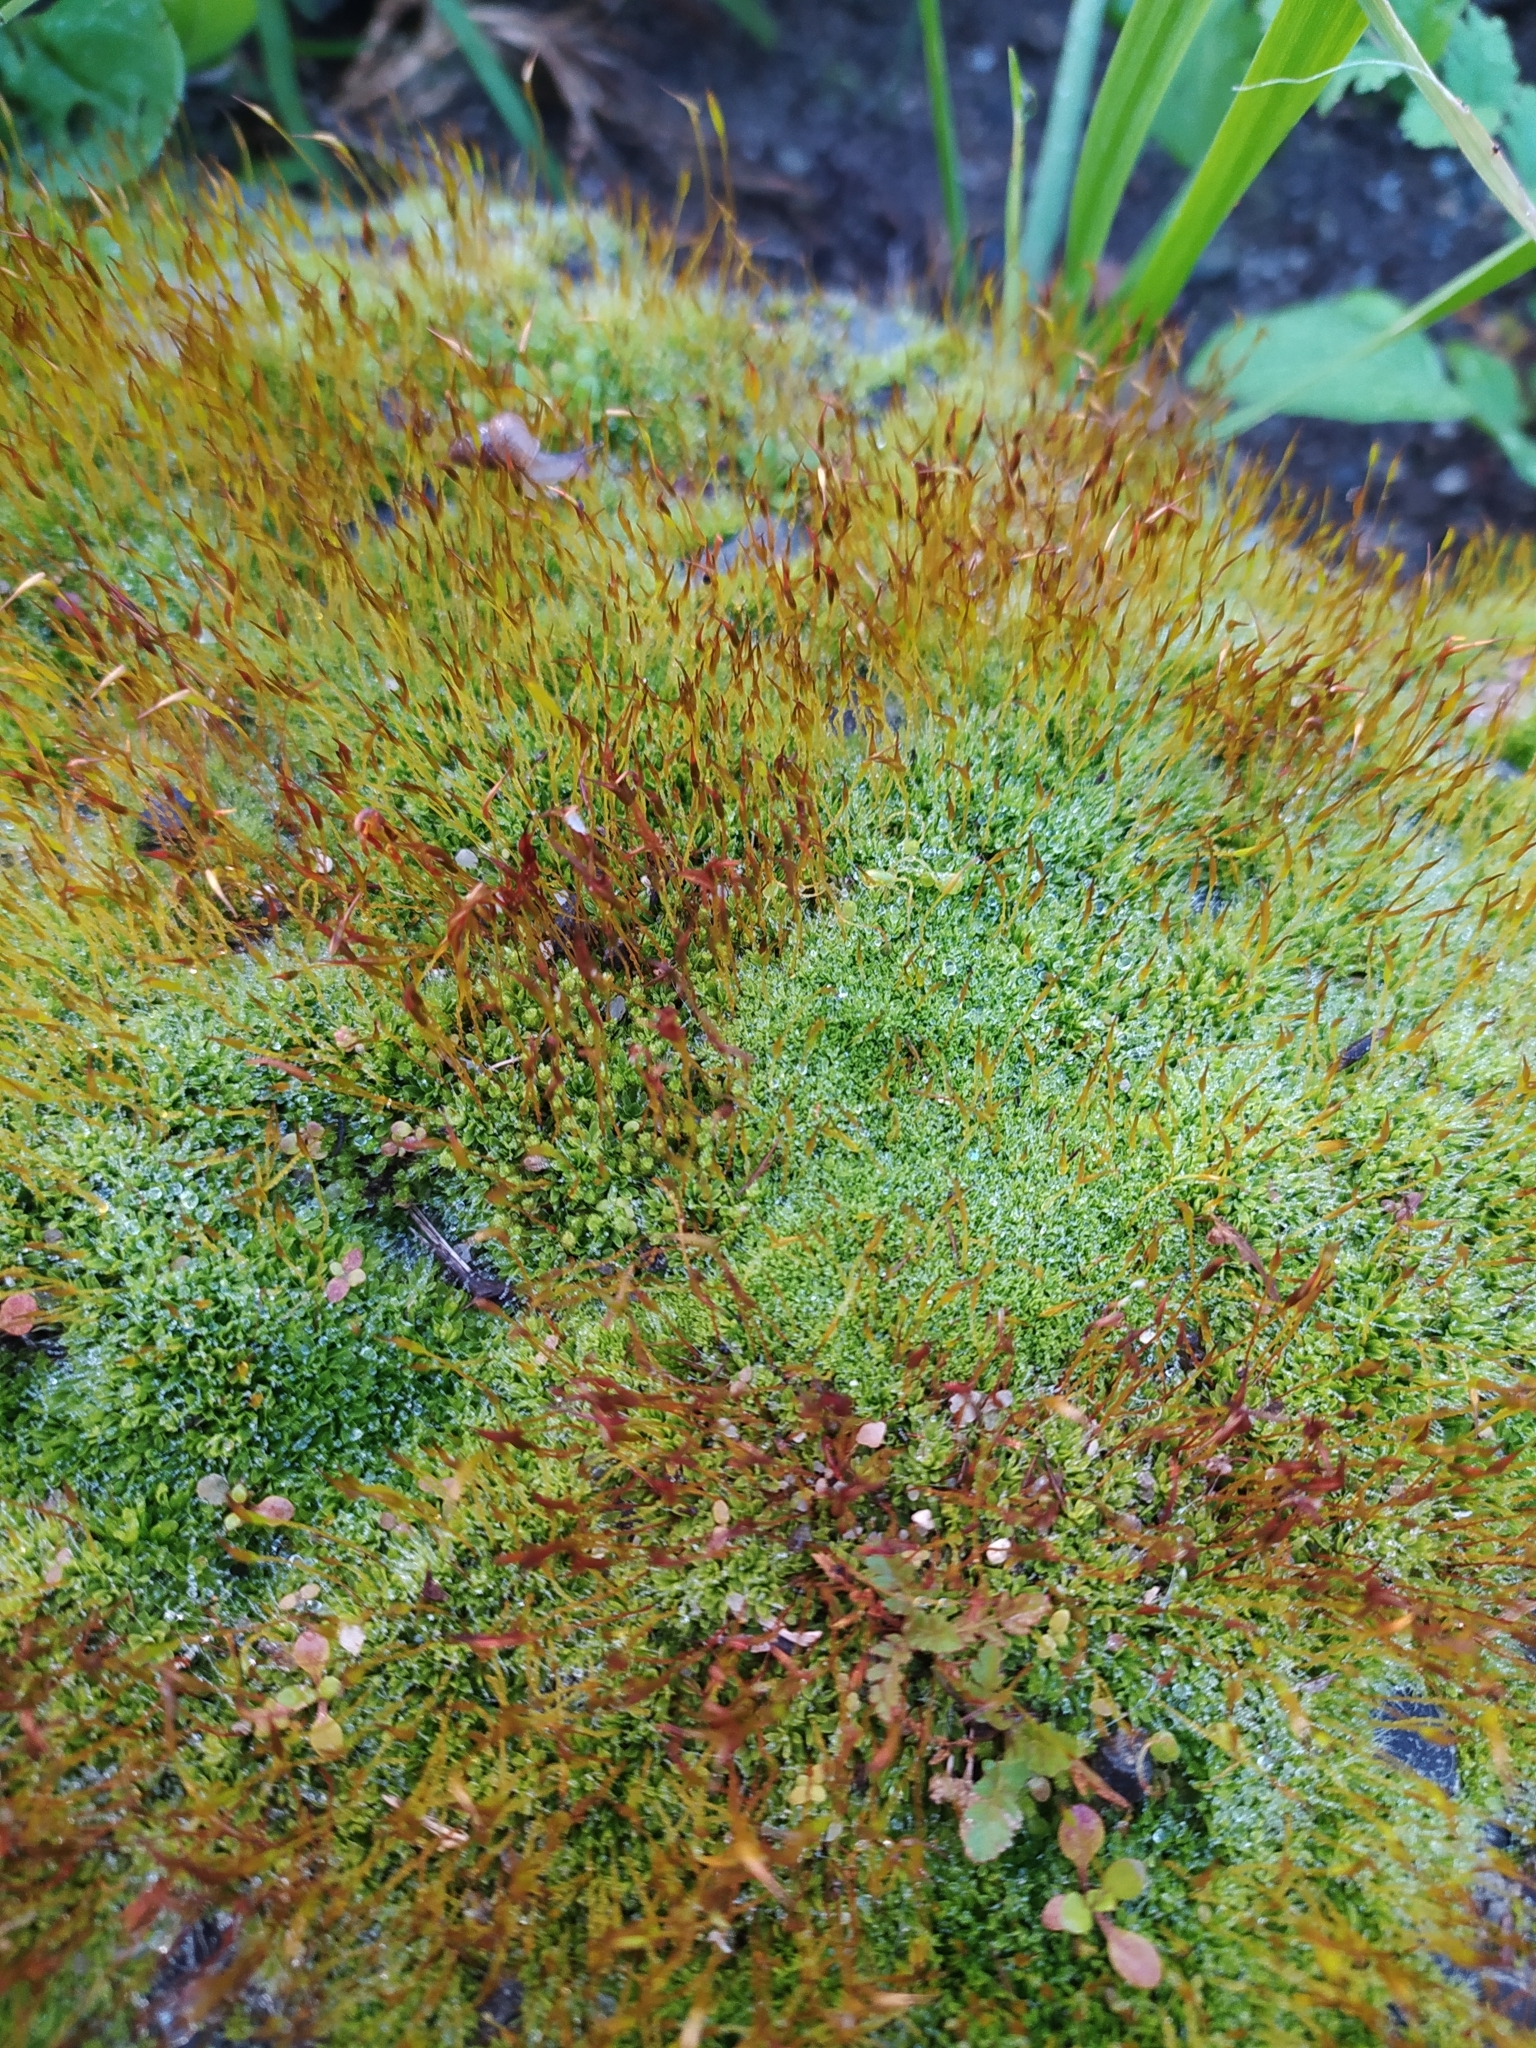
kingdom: Plantae
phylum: Bryophyta
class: Bryopsida
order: Pottiales
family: Pottiaceae
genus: Tortula
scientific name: Tortula muralis
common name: Wall screw-moss
